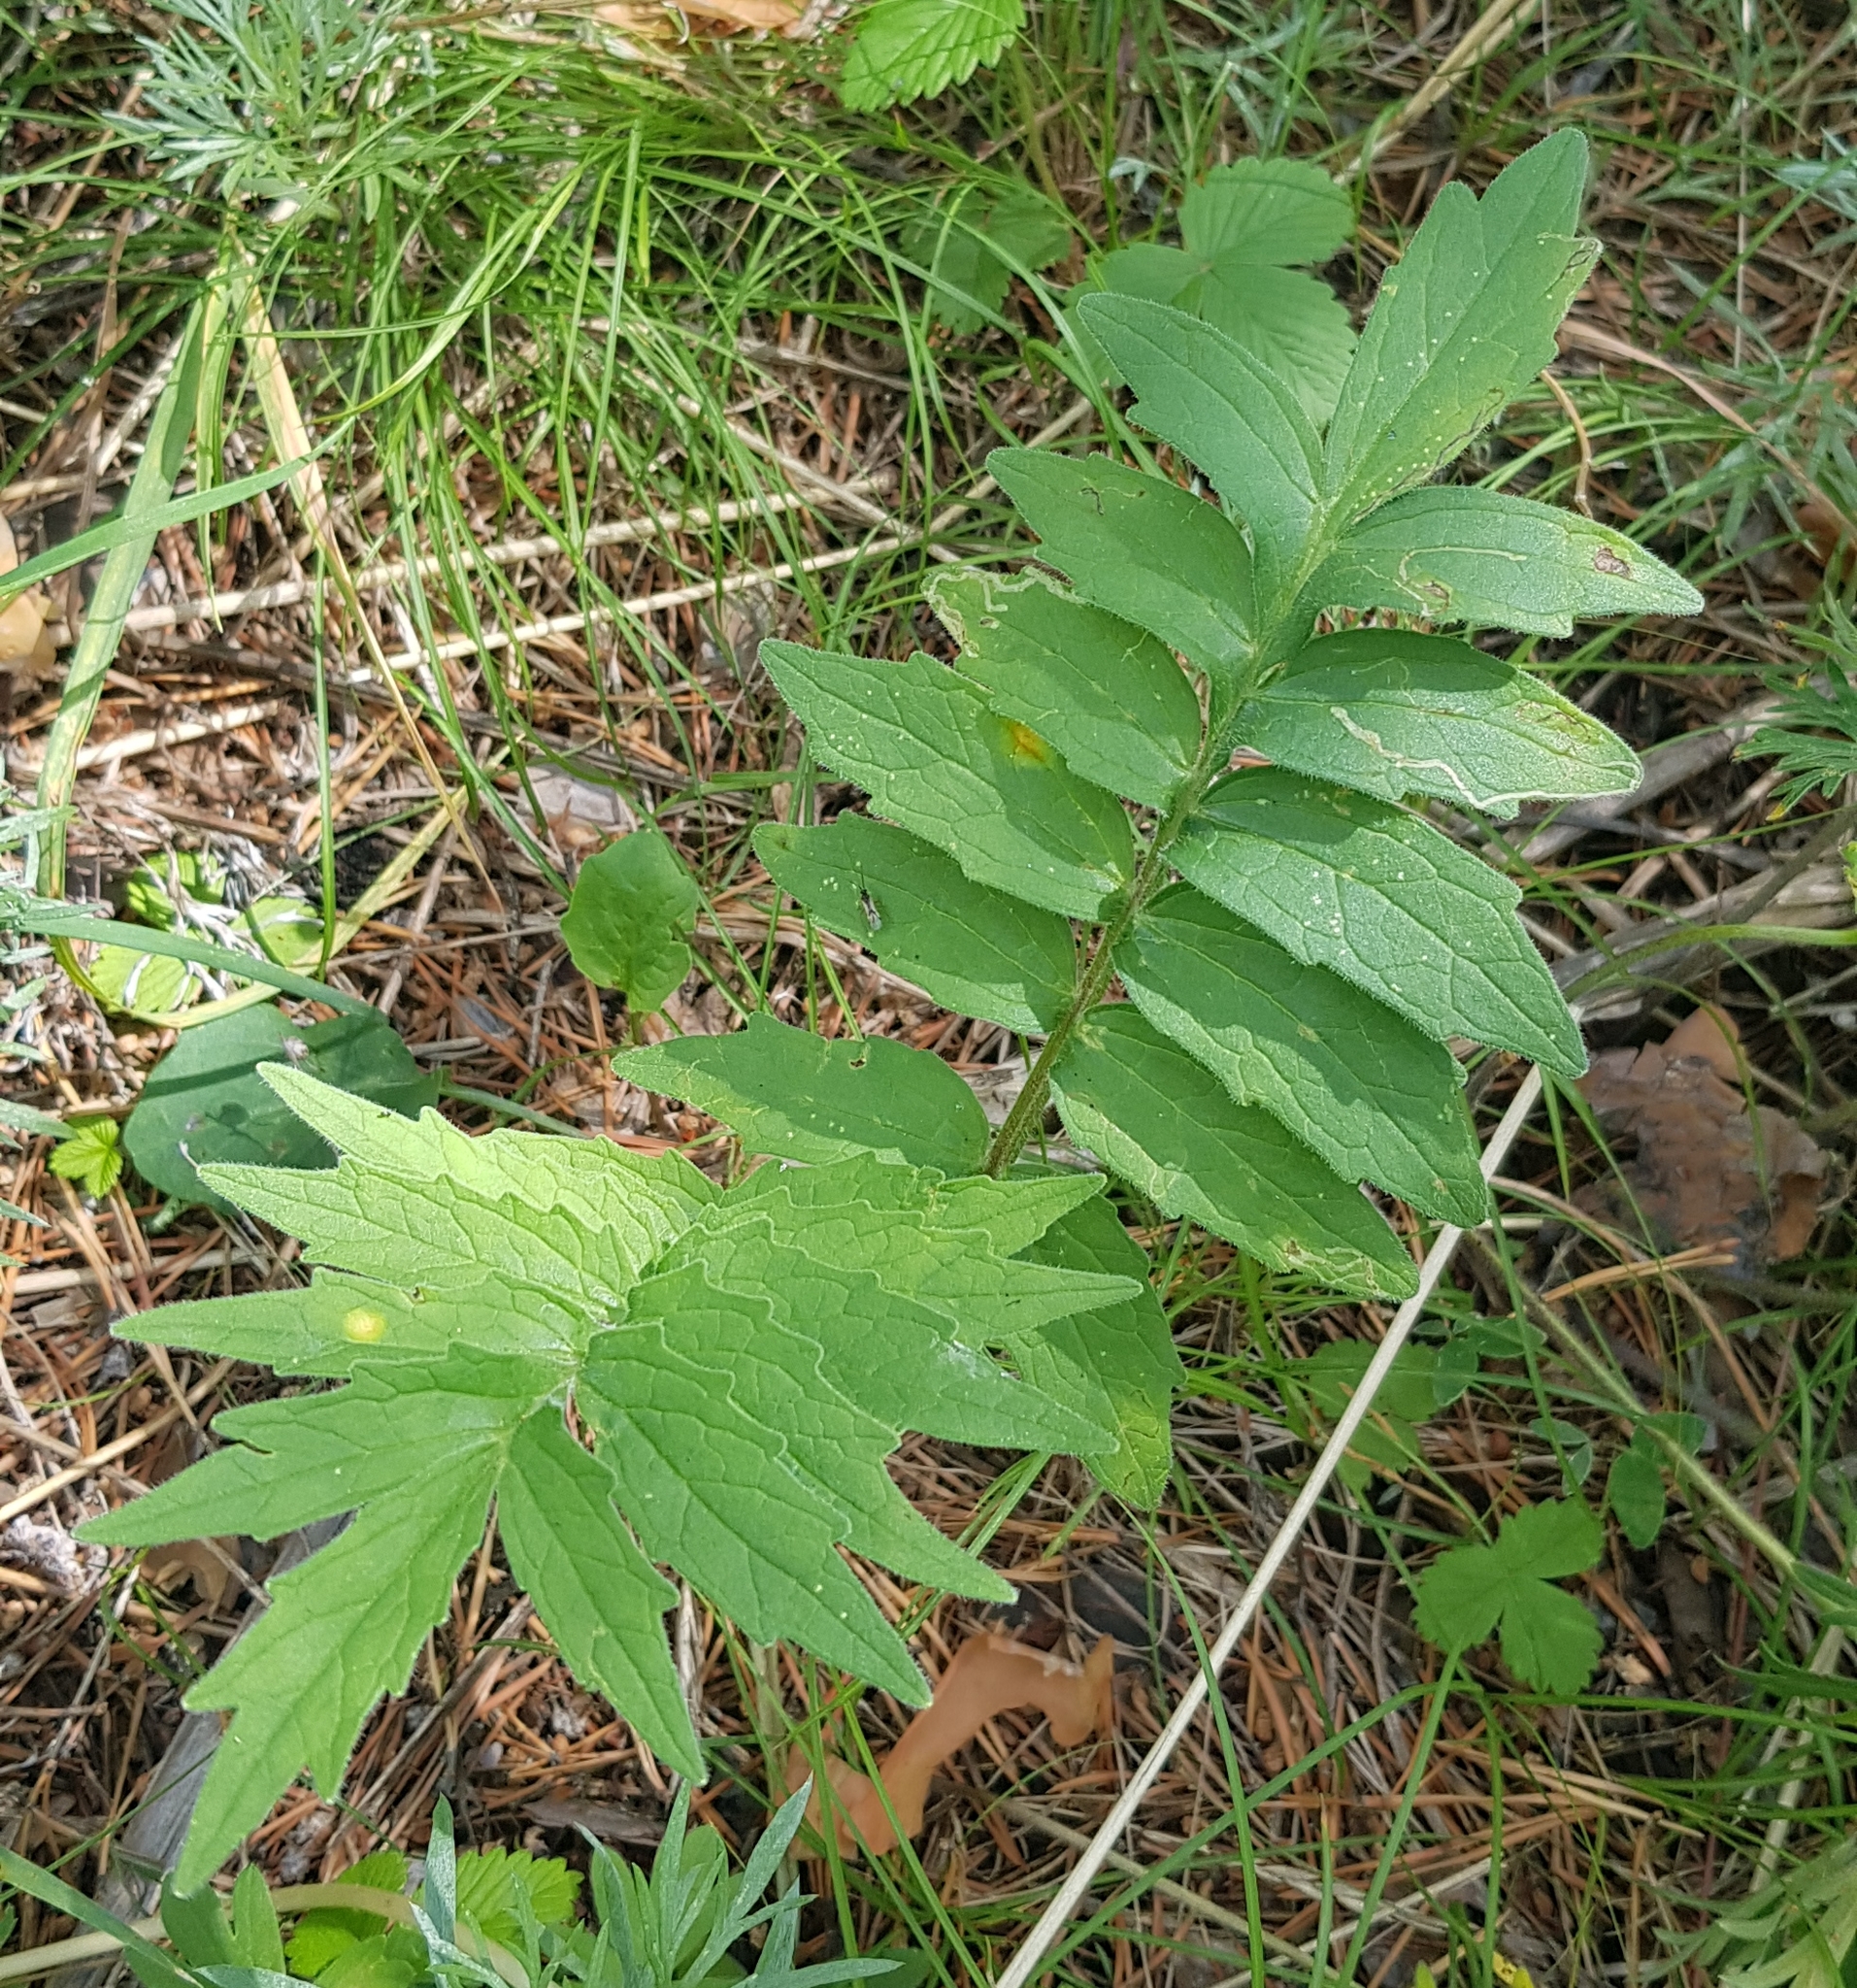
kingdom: Plantae
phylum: Tracheophyta
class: Magnoliopsida
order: Dipsacales
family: Caprifoliaceae
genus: Valeriana
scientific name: Valeriana officinalis
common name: Common valerian
